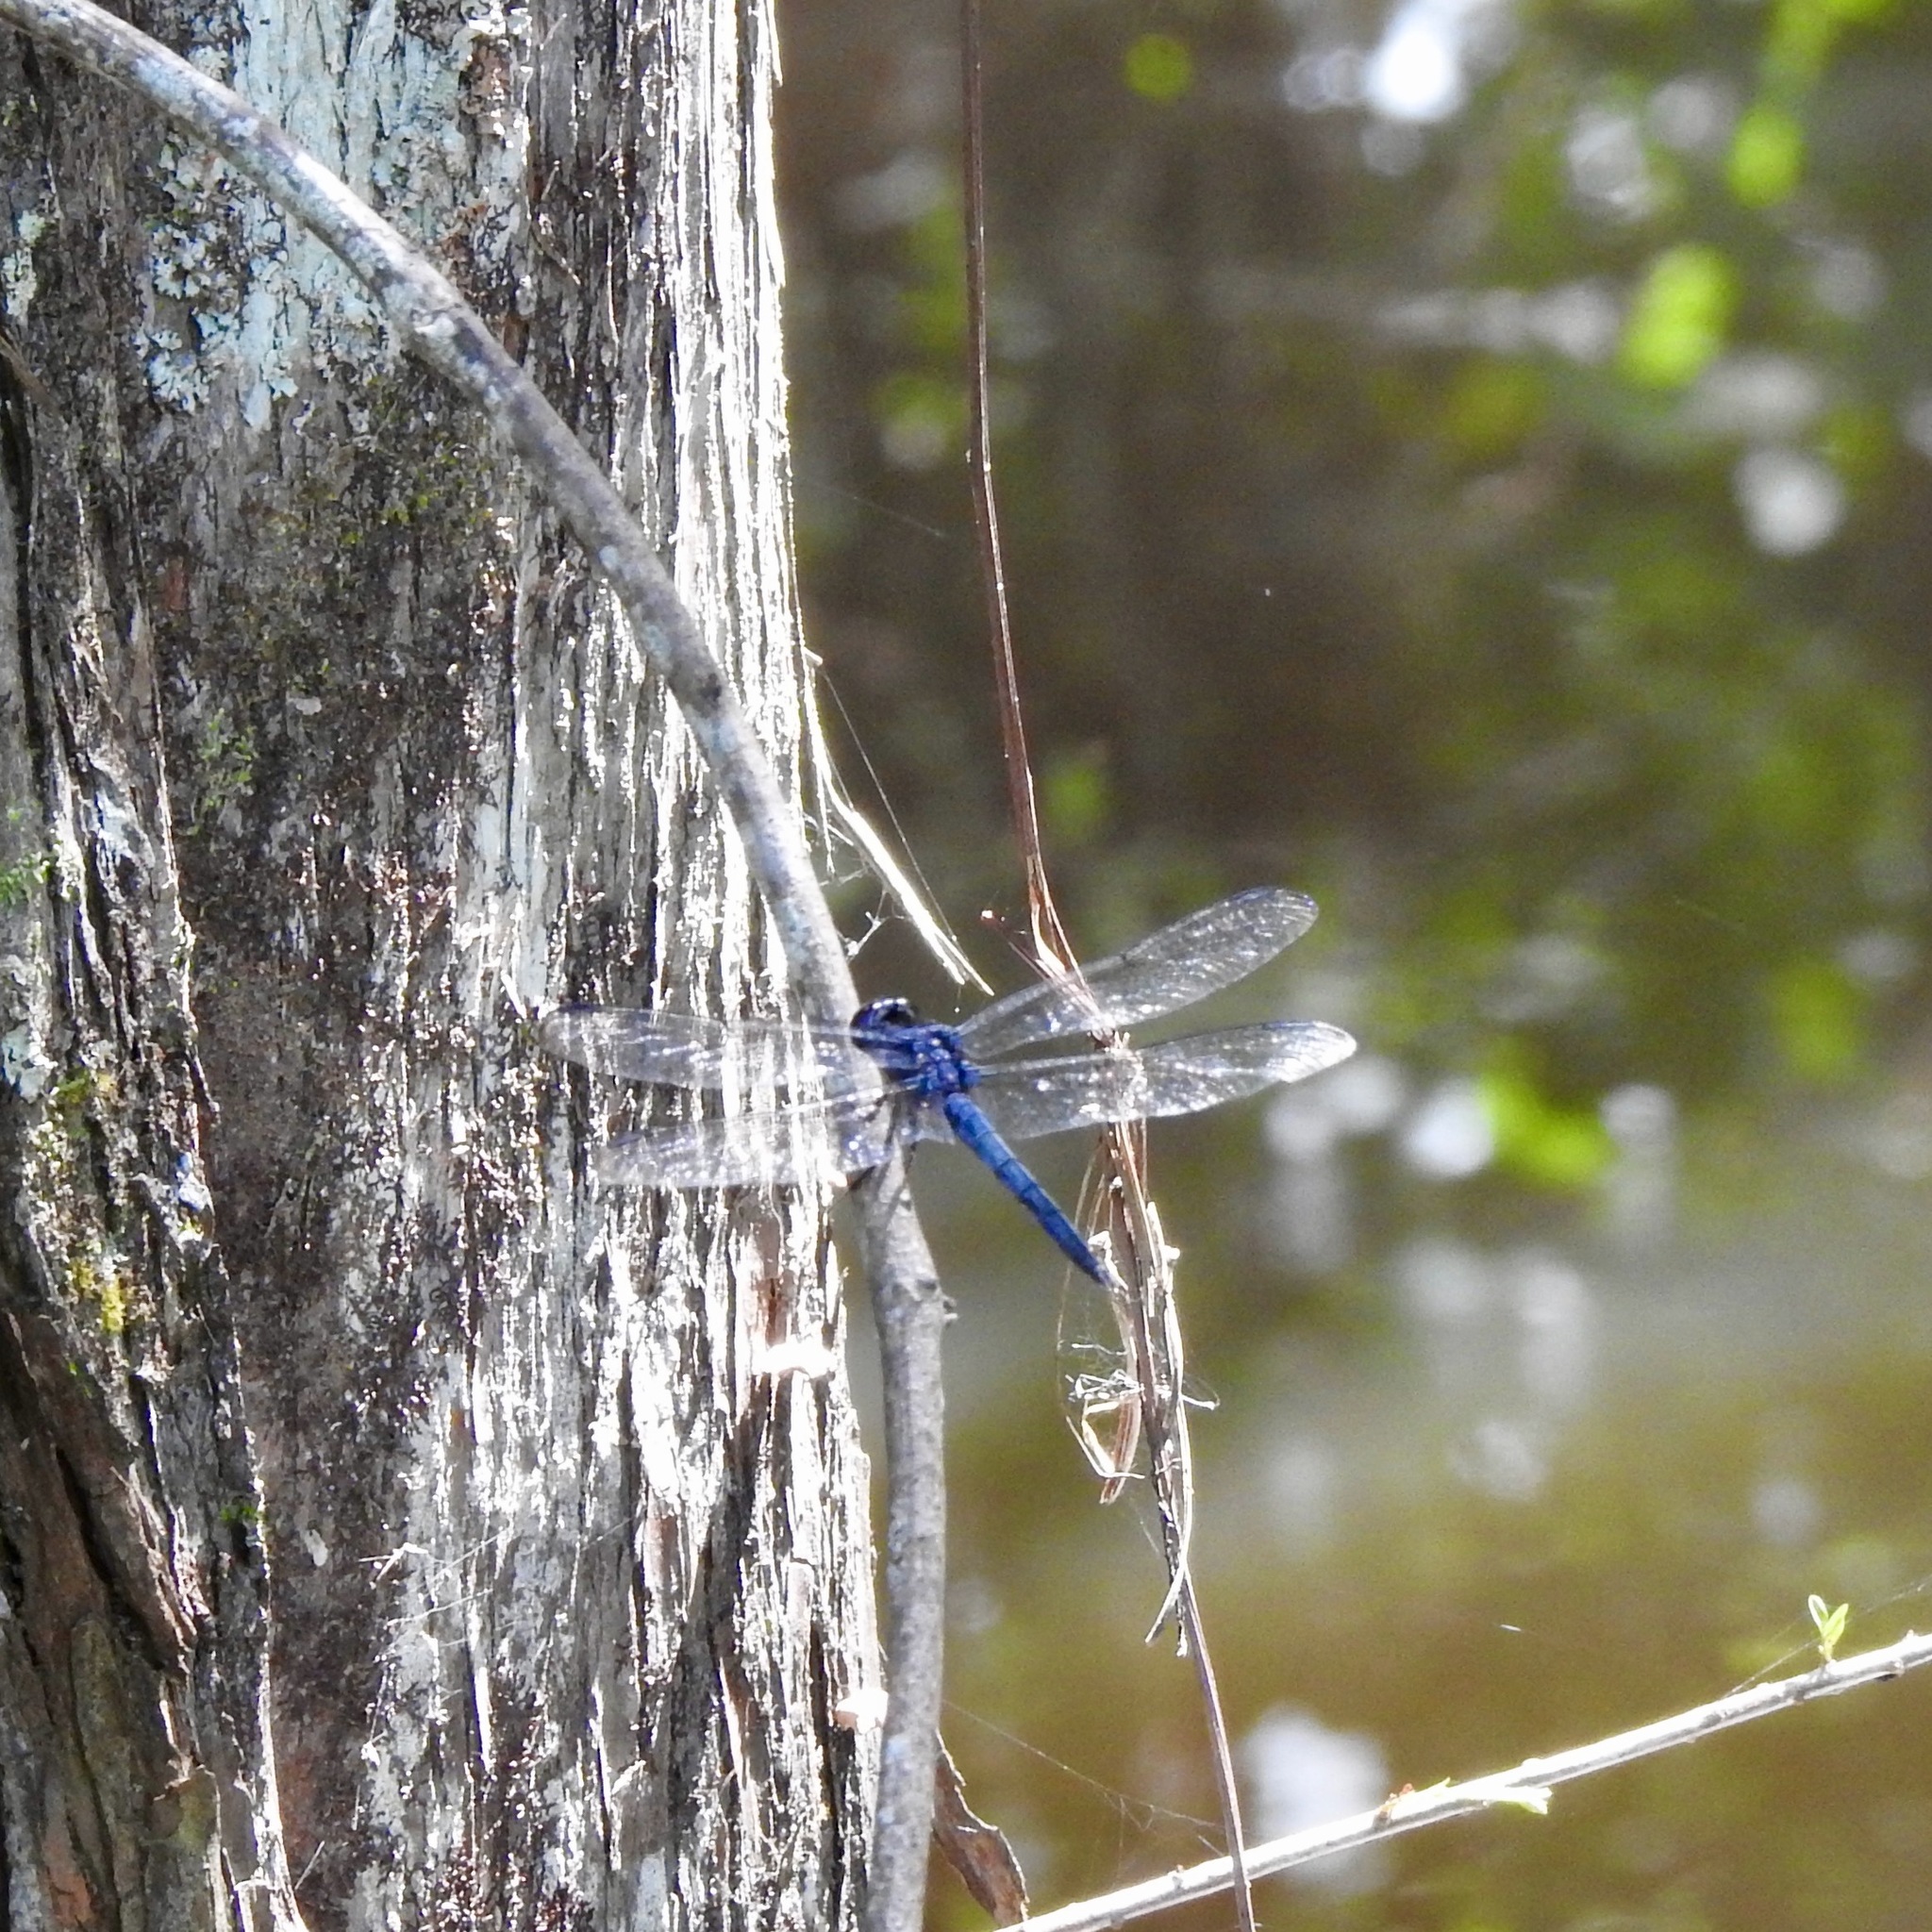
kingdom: Animalia
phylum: Arthropoda
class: Insecta
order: Odonata
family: Libellulidae
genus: Libellula
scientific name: Libellula incesta
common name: Slaty skimmer
